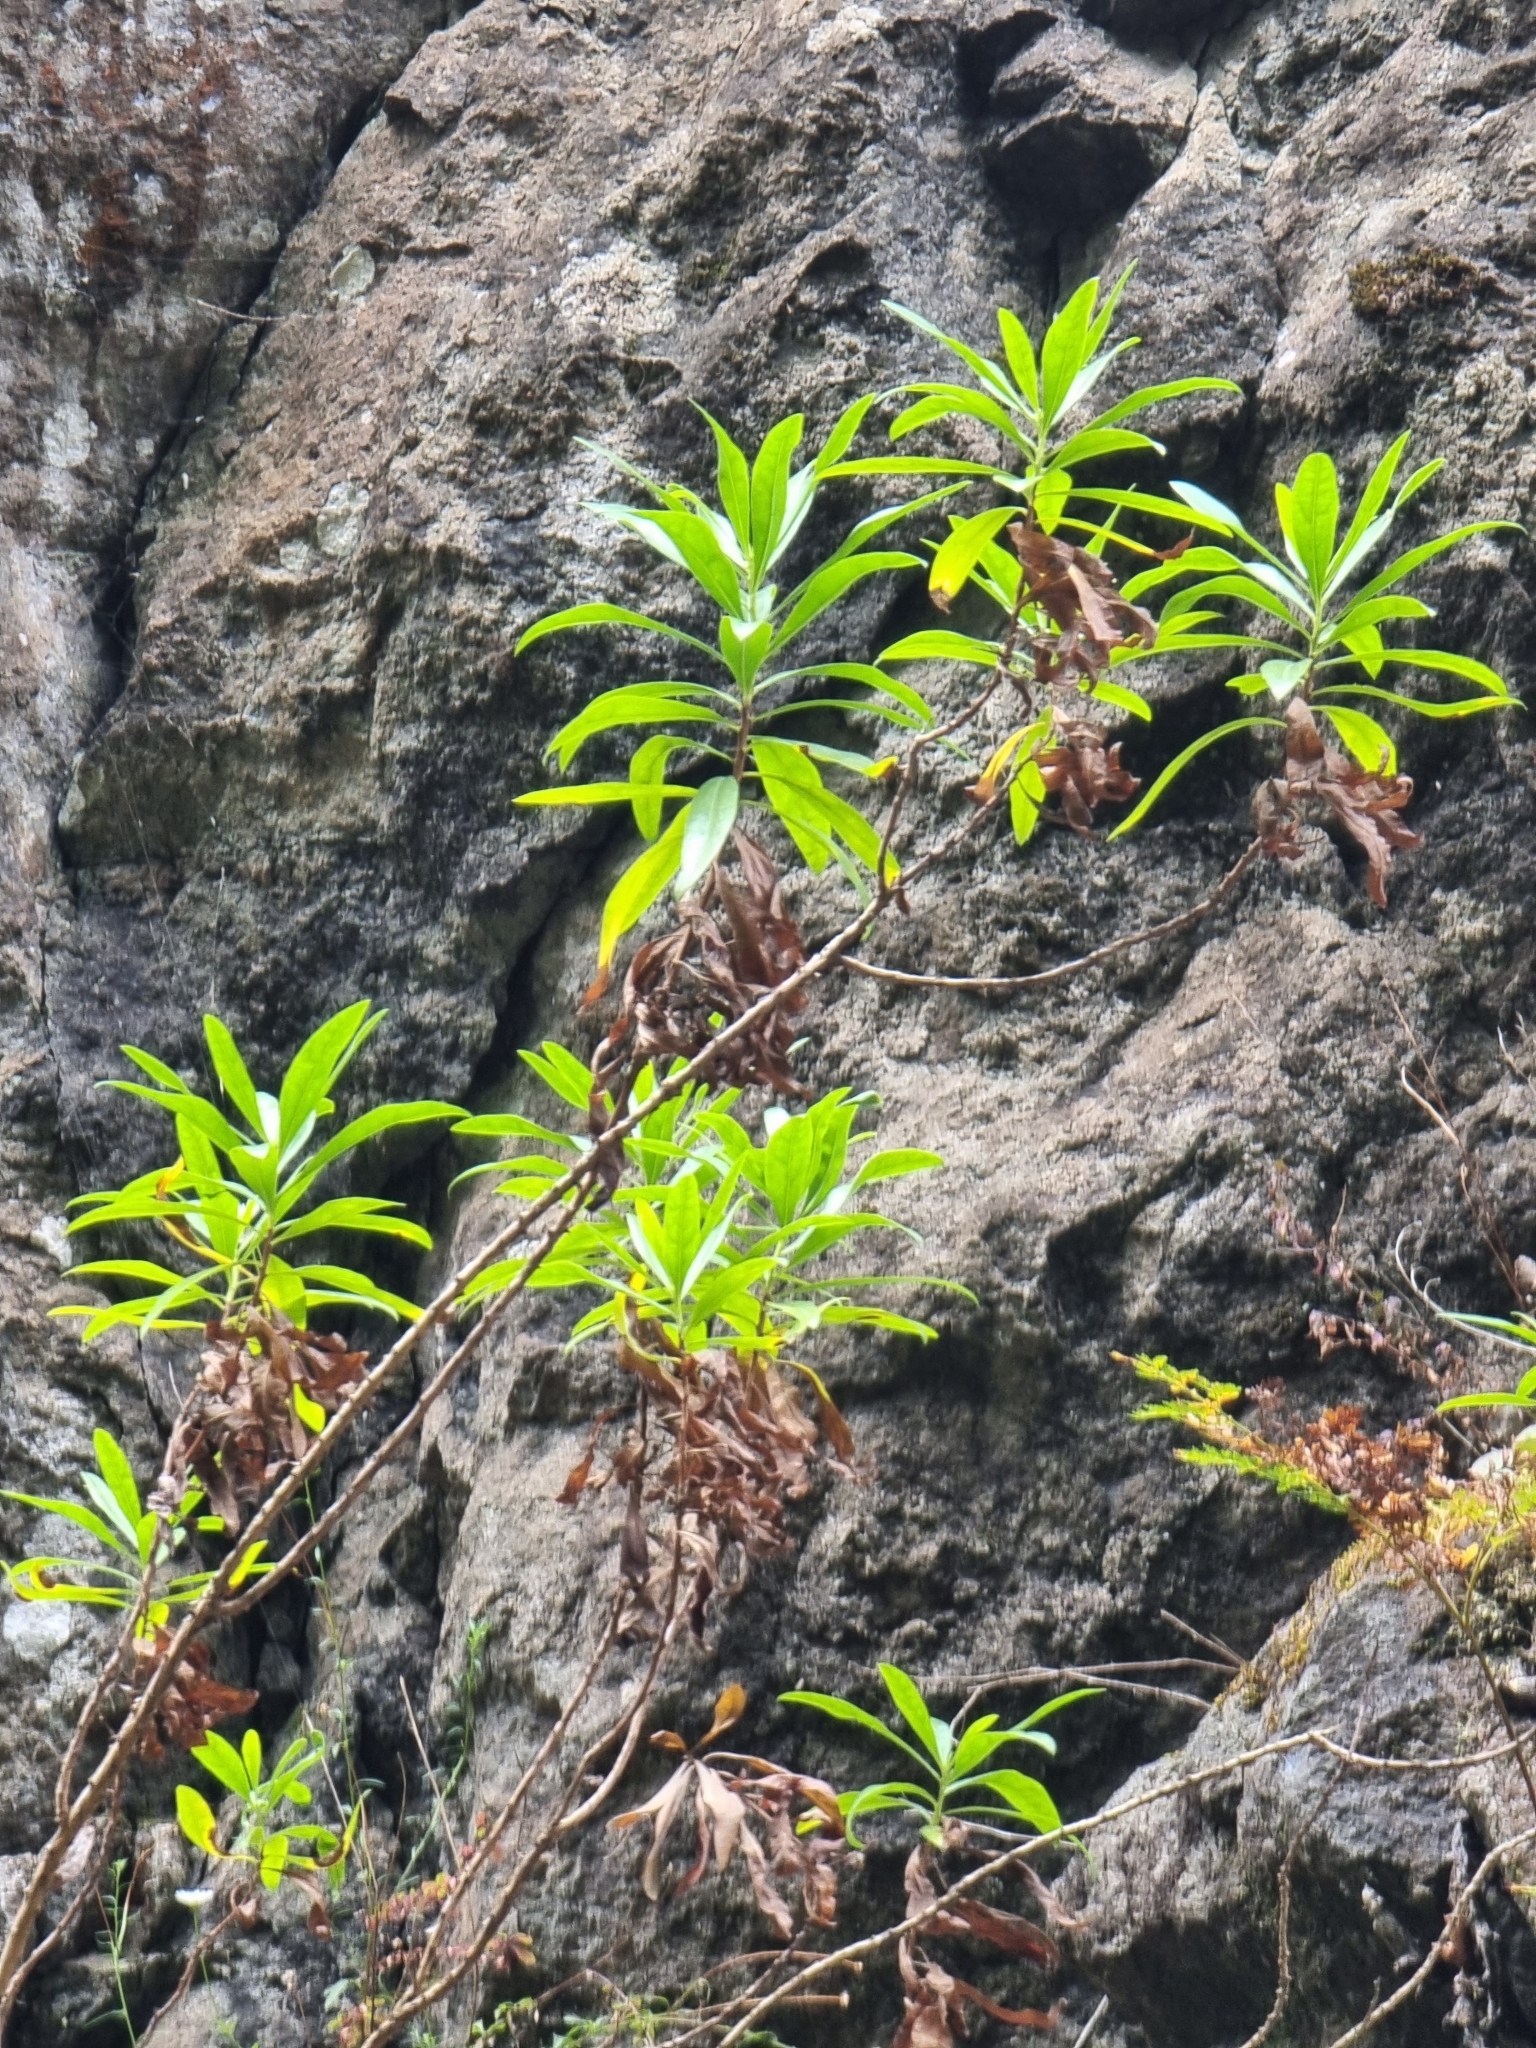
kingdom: Plantae
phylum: Tracheophyta
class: Magnoliopsida
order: Lamiales
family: Plantaginaceae
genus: Globularia
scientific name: Globularia salicina
